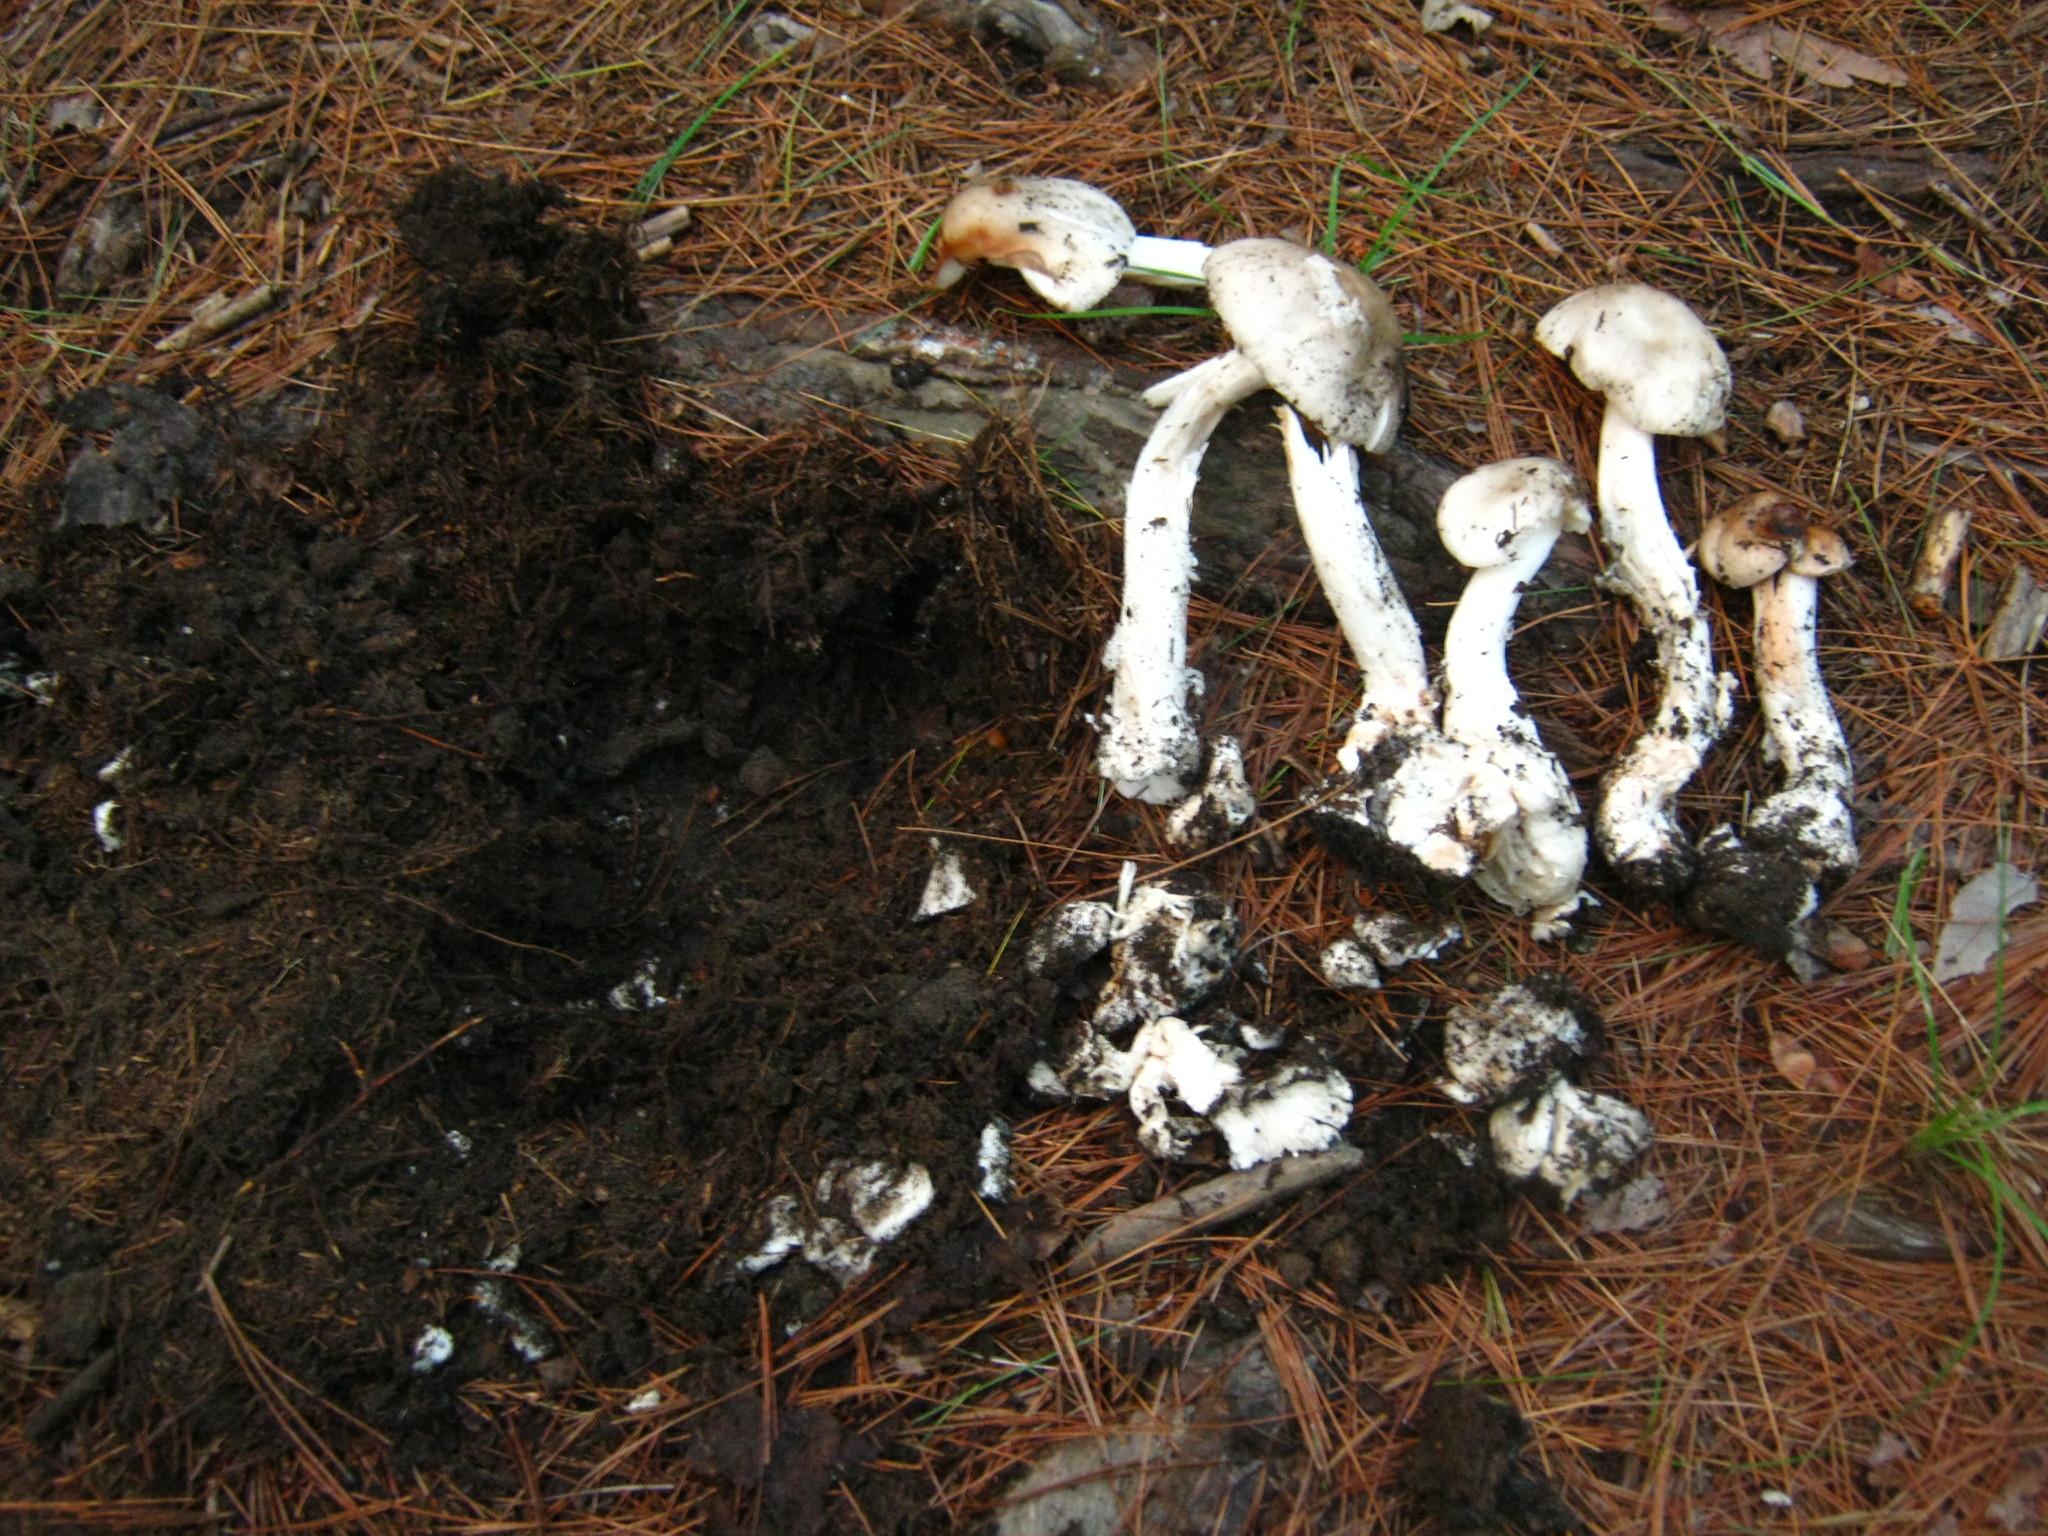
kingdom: Fungi
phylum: Basidiomycota
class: Agaricomycetes
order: Agaricales
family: Amanitaceae
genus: Amanita
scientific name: Amanita submaculata
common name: Ball gown amanita
